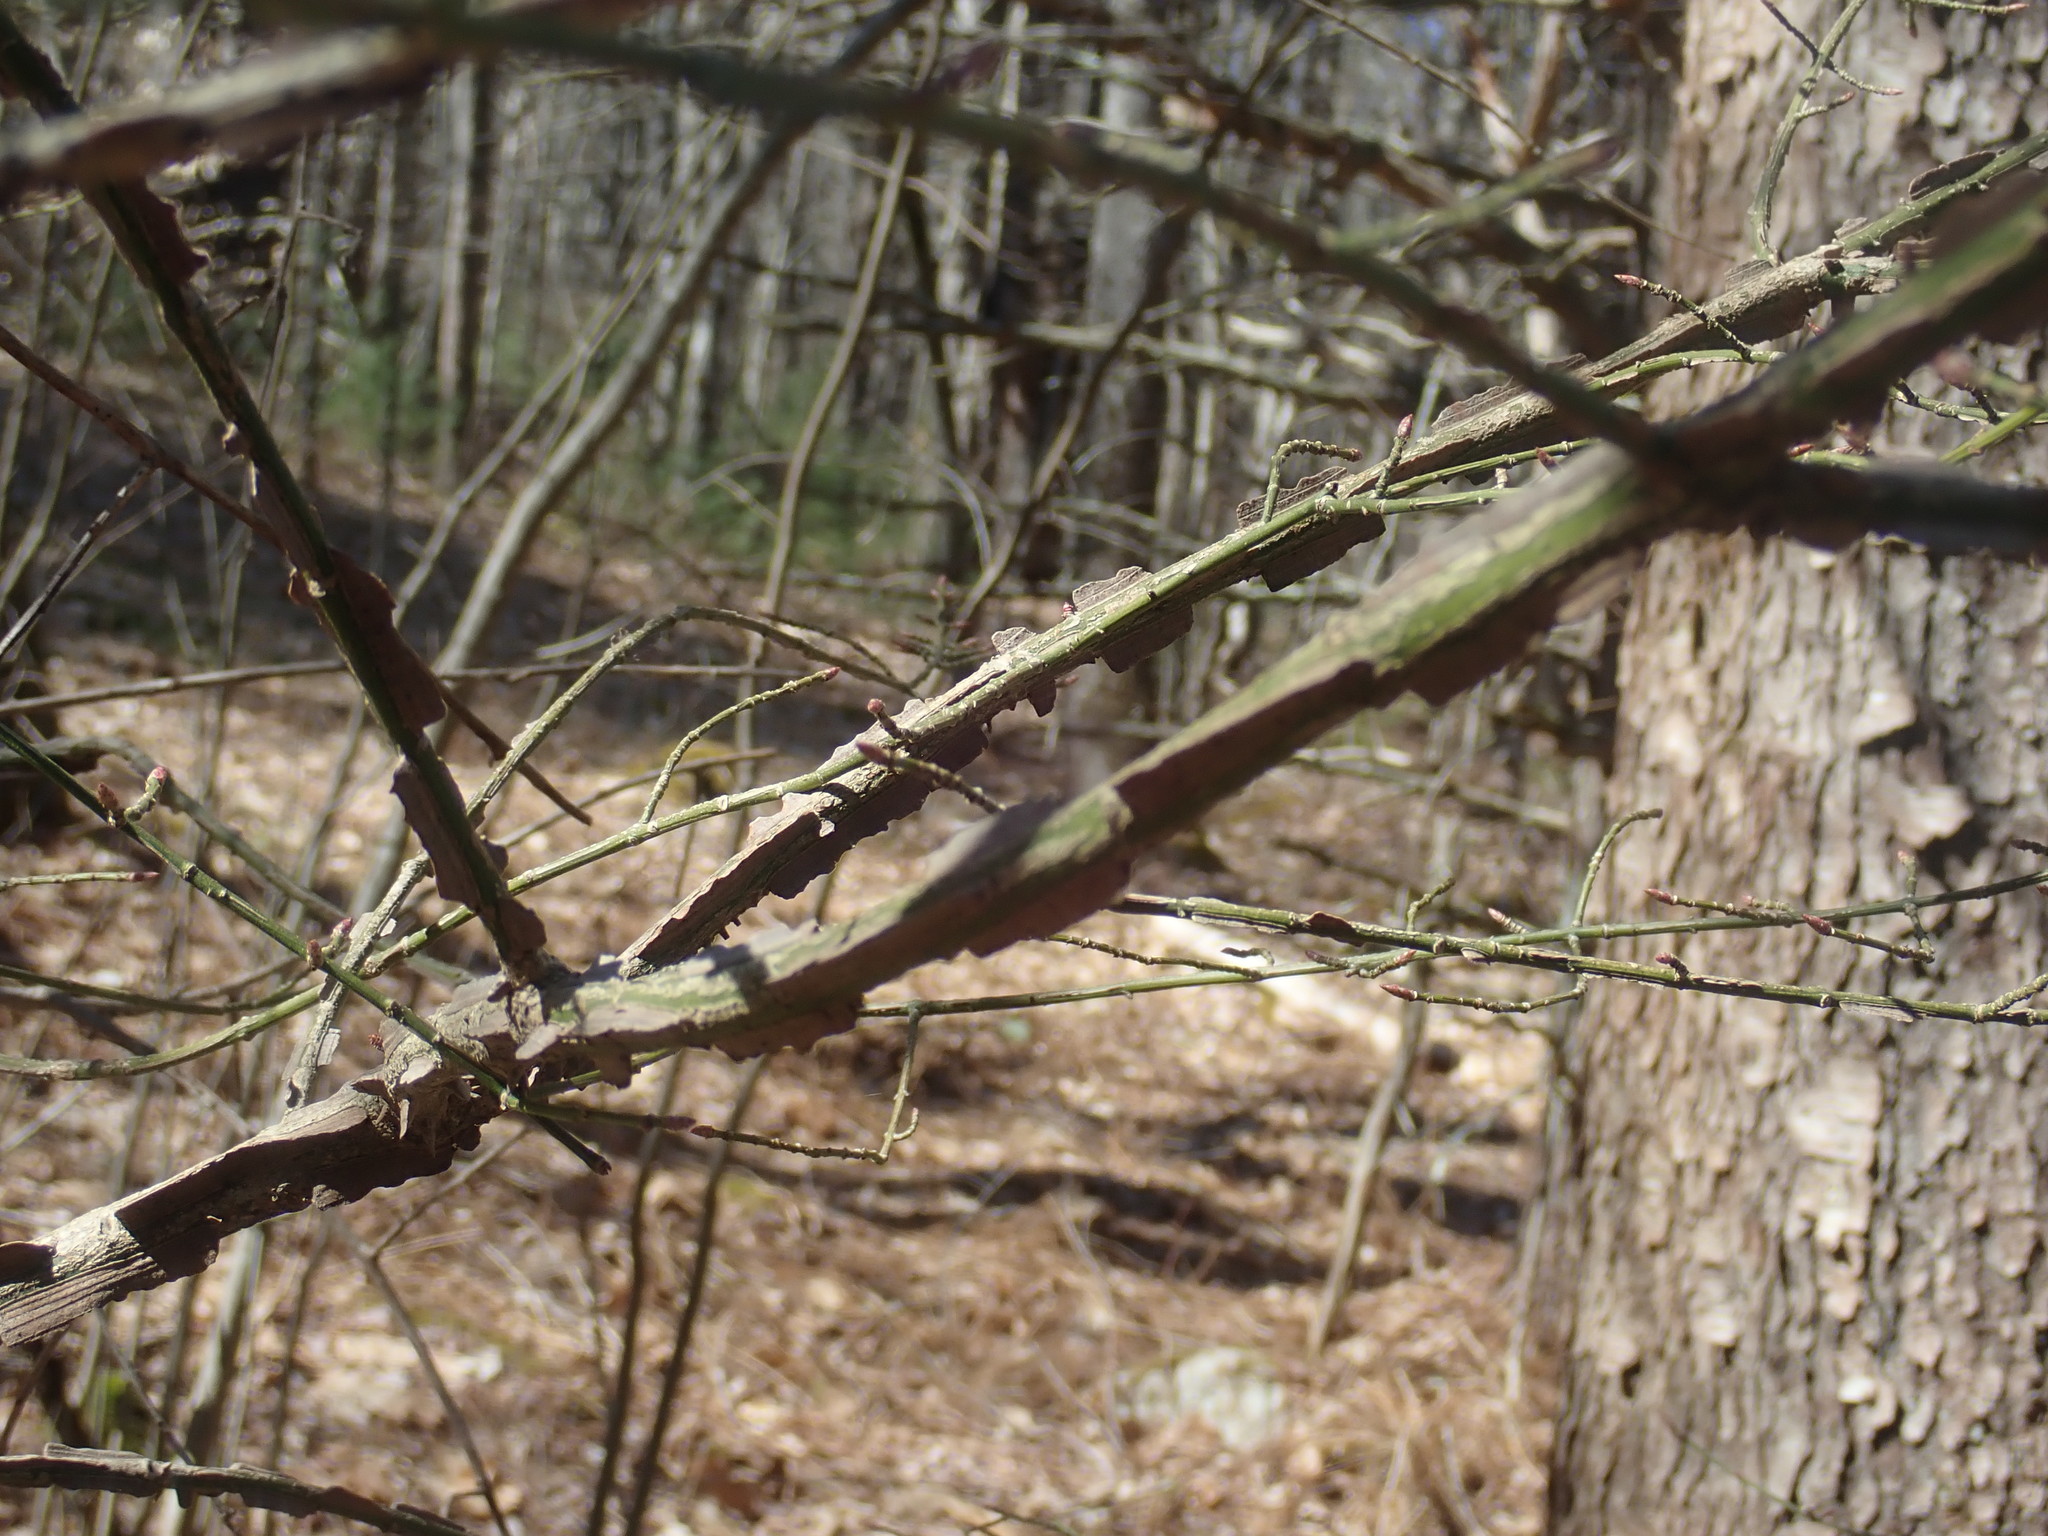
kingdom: Plantae
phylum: Tracheophyta
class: Magnoliopsida
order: Celastrales
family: Celastraceae
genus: Euonymus
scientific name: Euonymus alatus
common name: Winged euonymus
